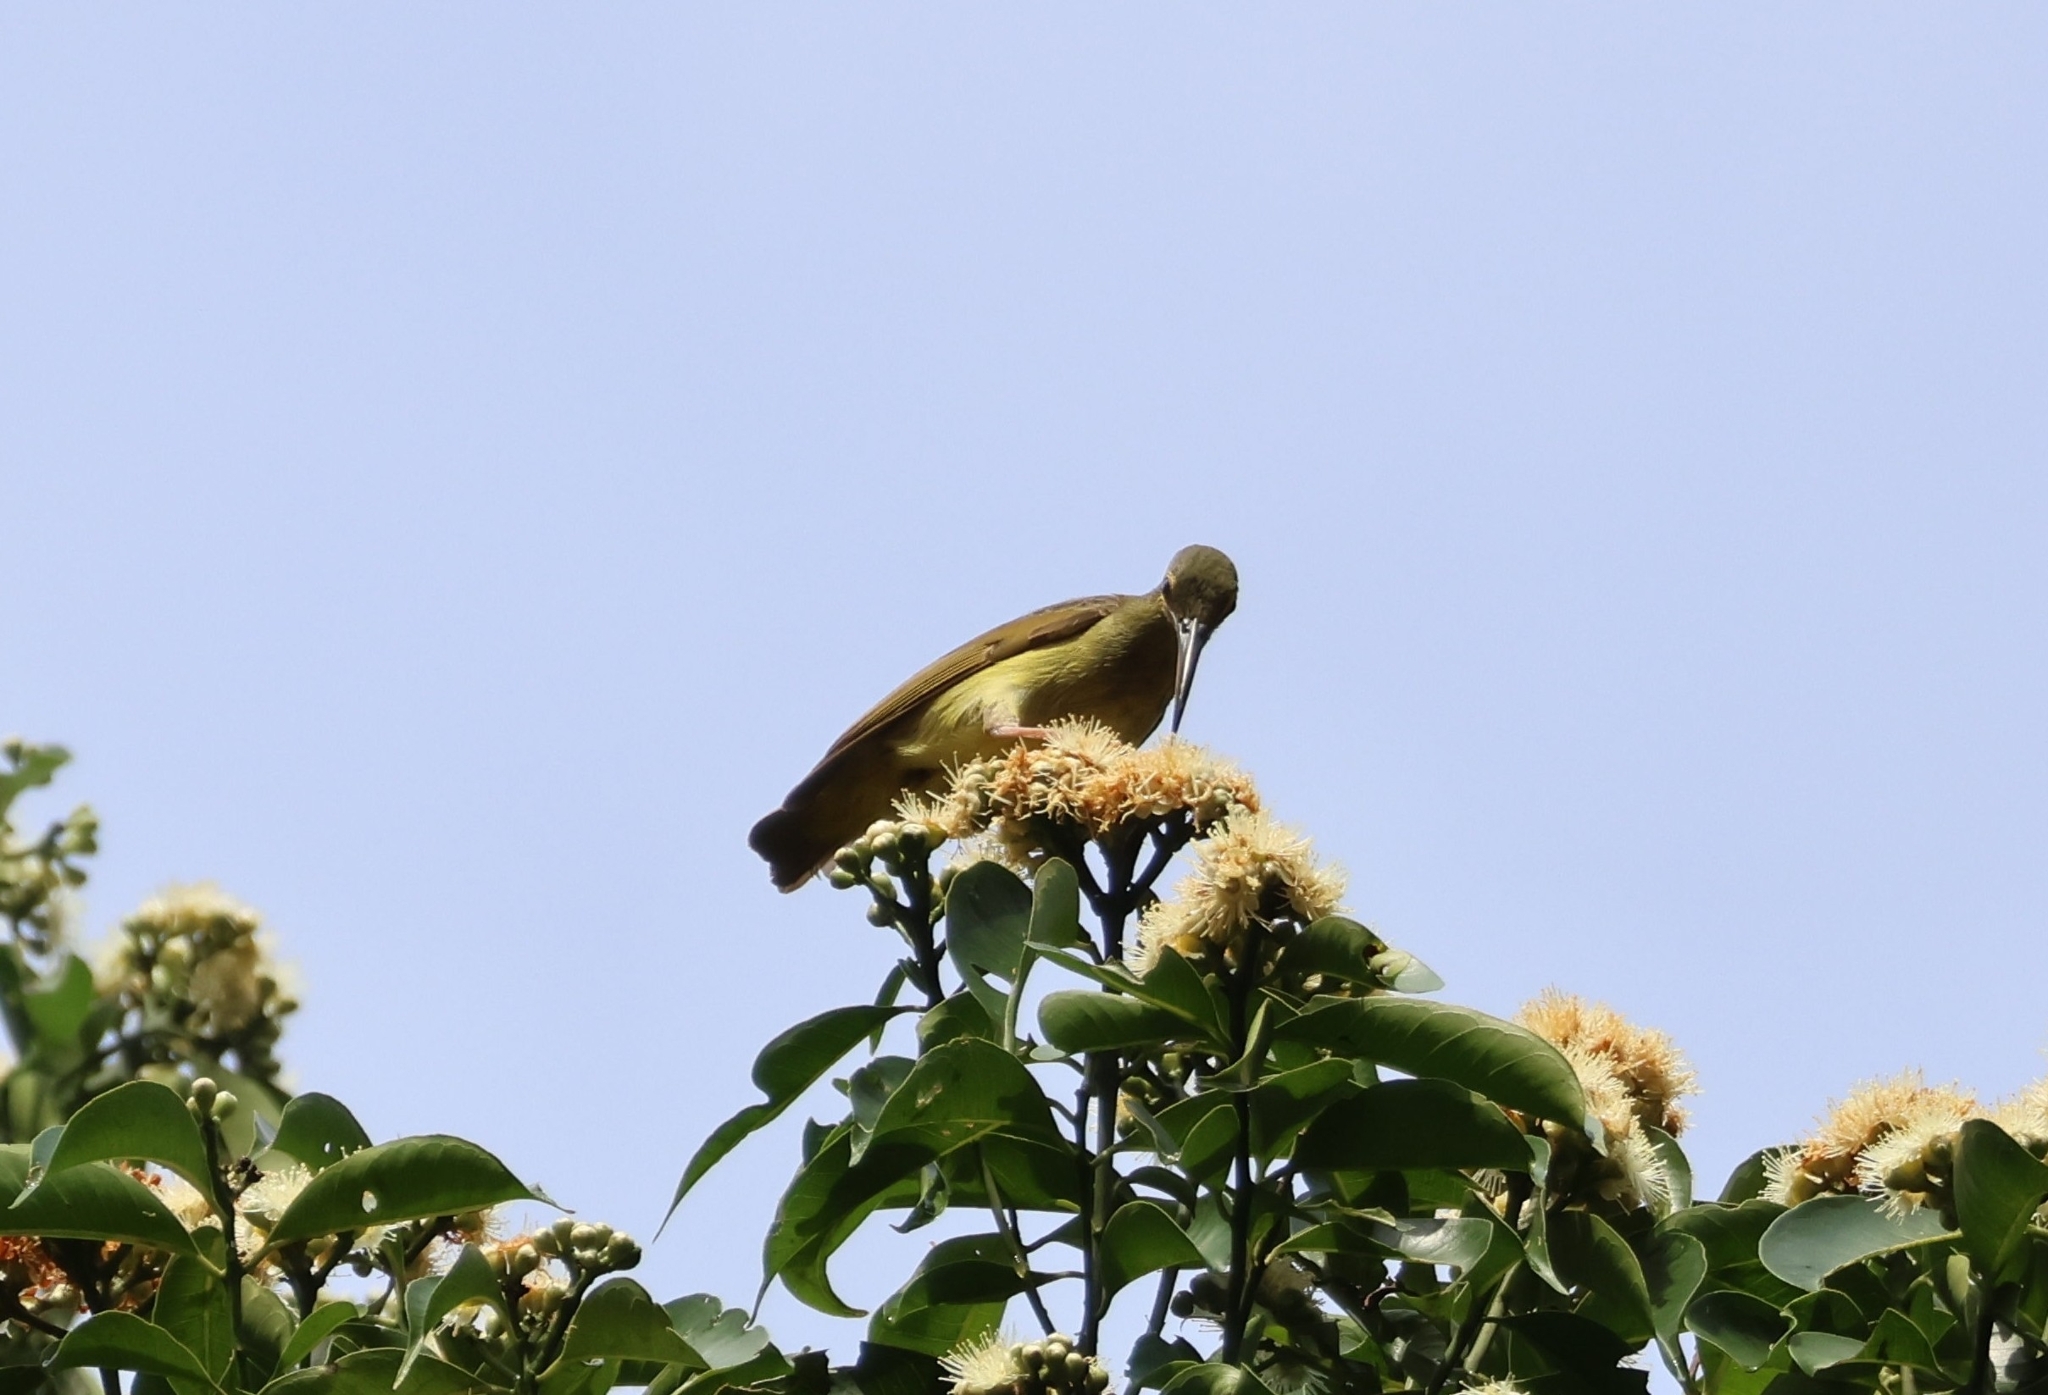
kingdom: Animalia
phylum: Chordata
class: Aves
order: Passeriformes
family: Nectariniidae
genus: Arachnothera
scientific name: Arachnothera chrysogenys
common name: Yellow-eared spiderhunter
